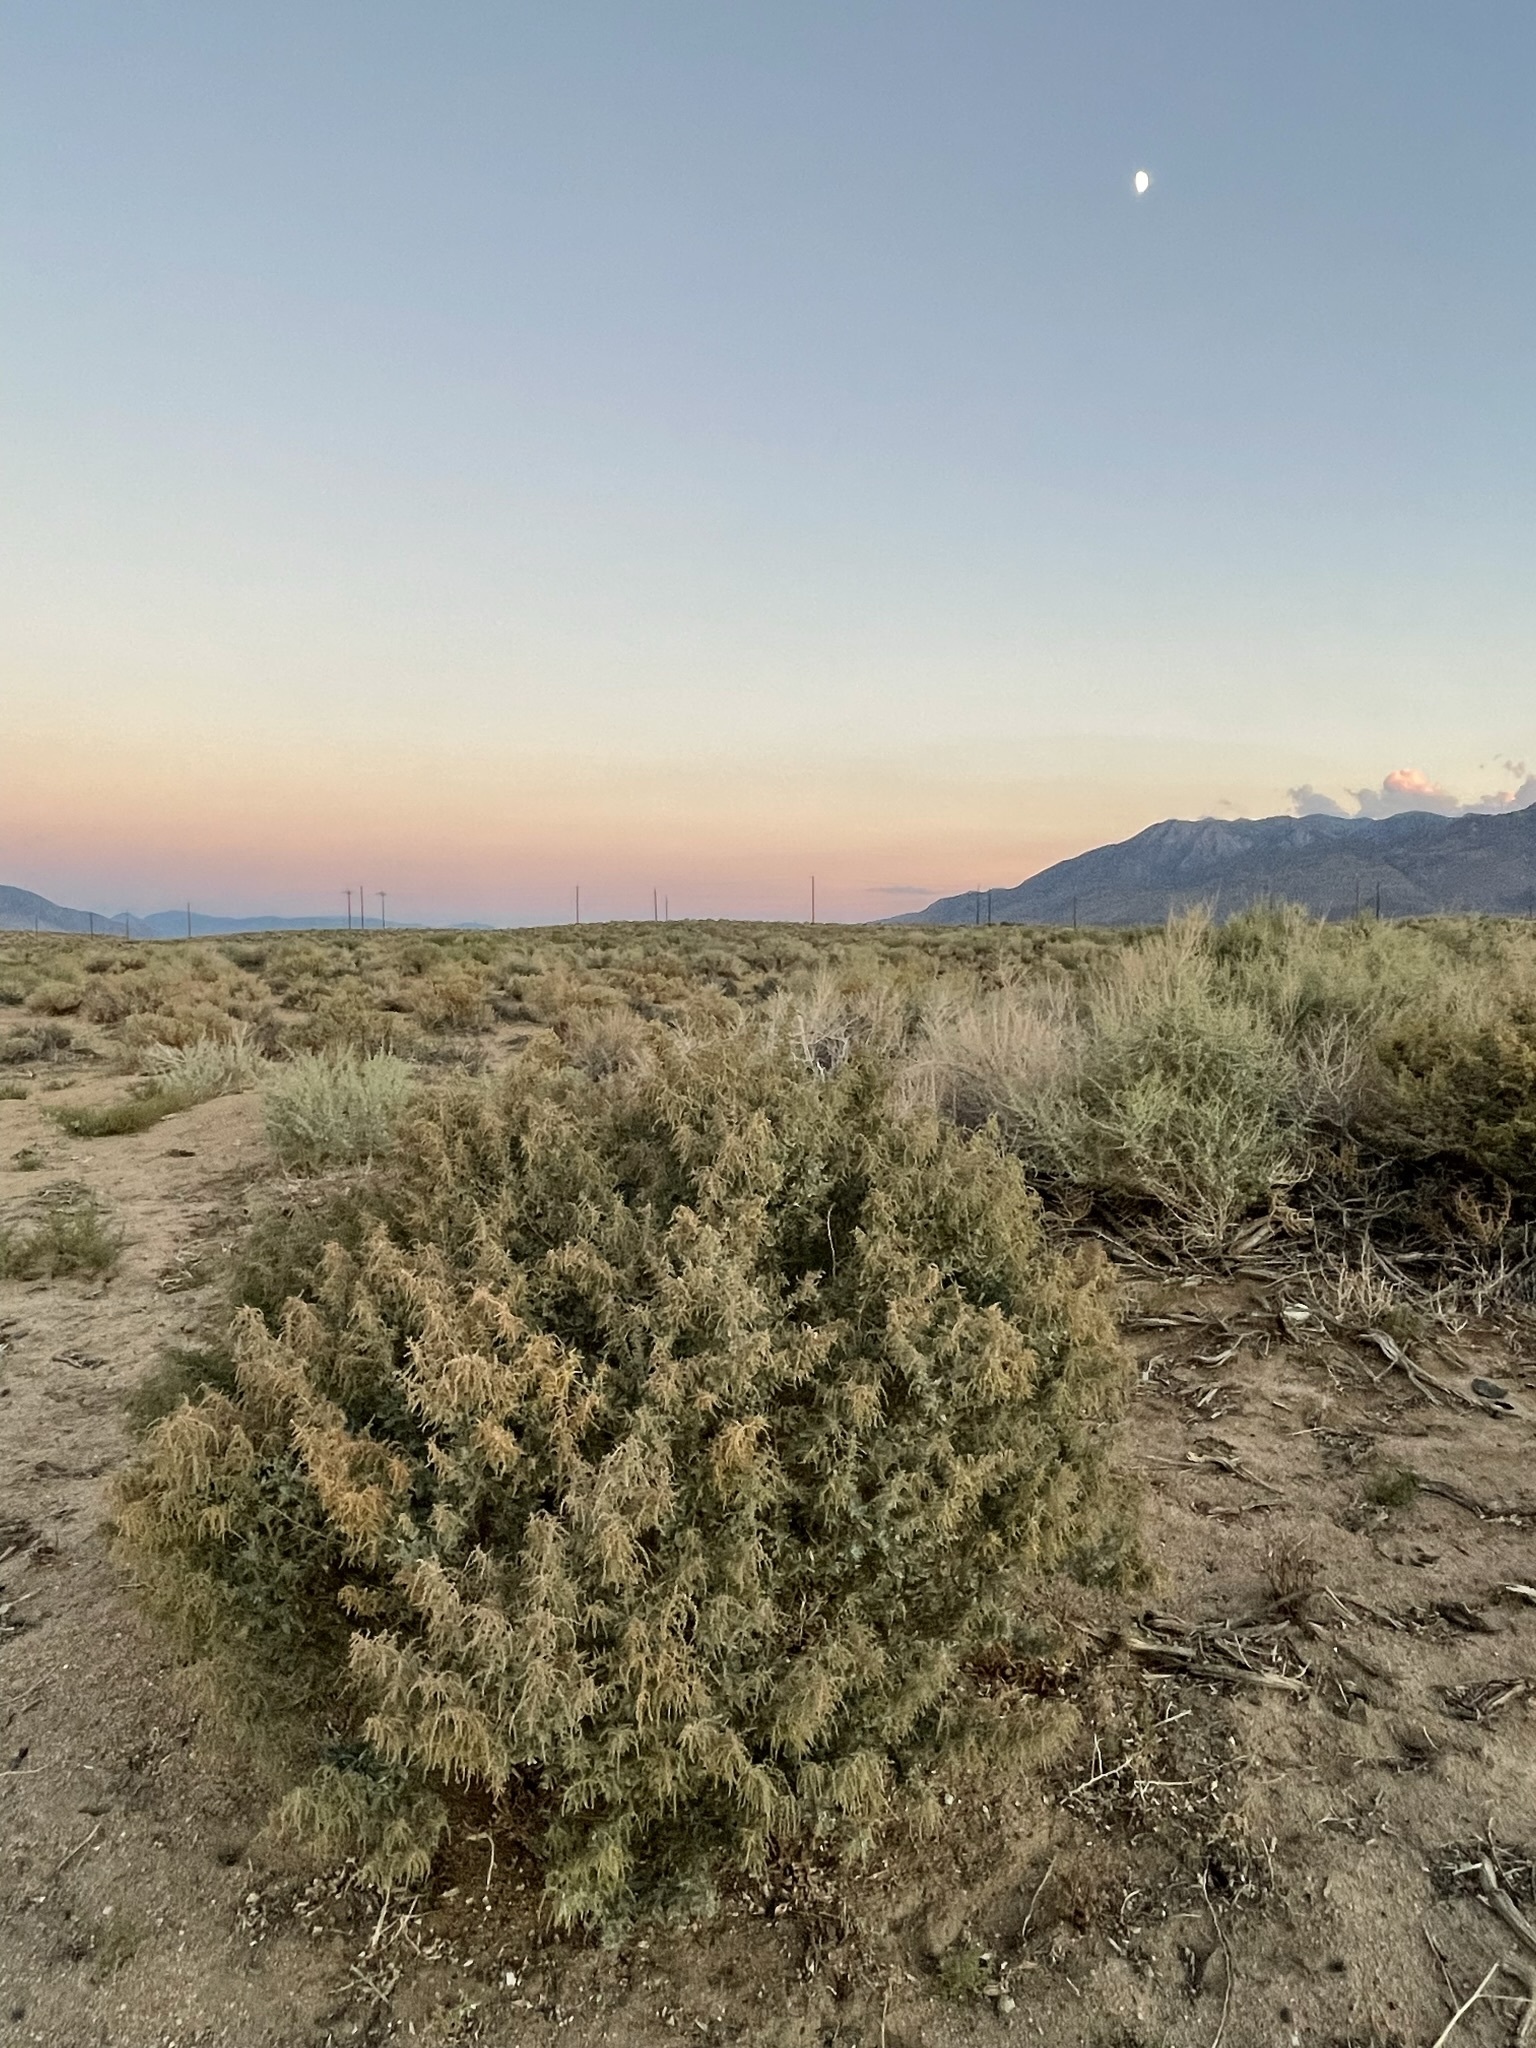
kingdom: Plantae
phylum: Tracheophyta
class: Magnoliopsida
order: Caryophyllales
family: Amaranthaceae
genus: Atriplex
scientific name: Atriplex torreyi
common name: Torrey's saltbush
